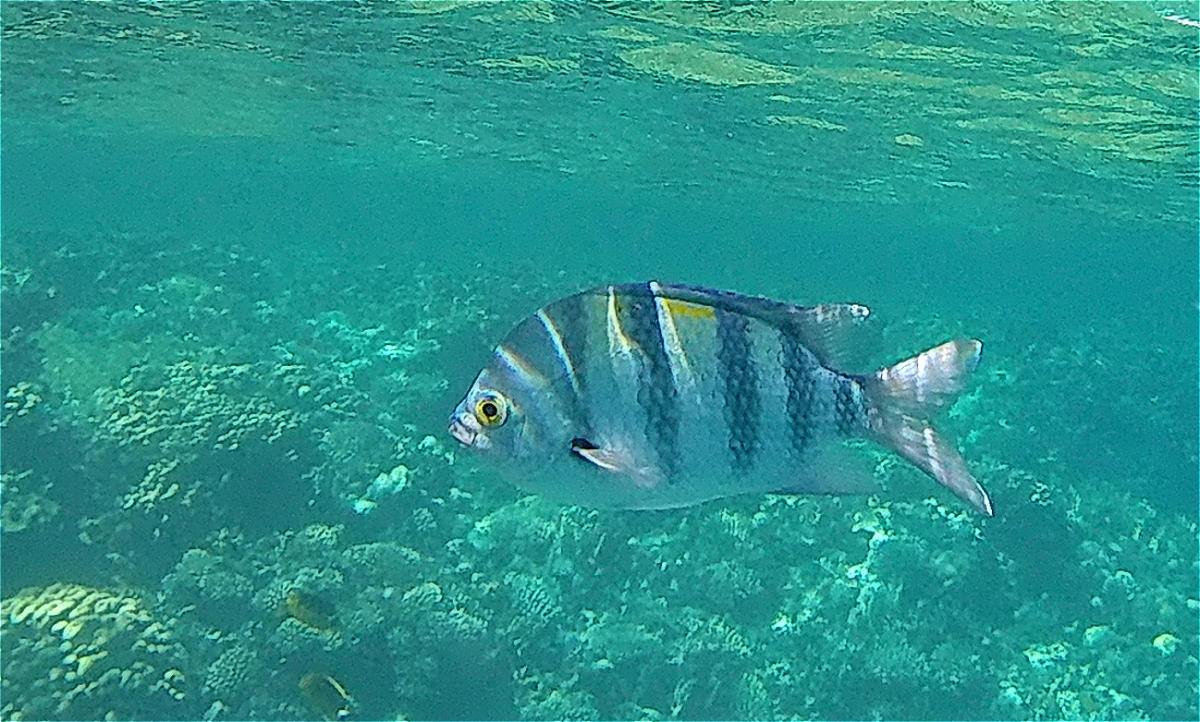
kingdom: Animalia
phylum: Chordata
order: Perciformes
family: Pomacentridae
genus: Abudefduf
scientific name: Abudefduf vaigiensis
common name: Indo-pacific sergeant
